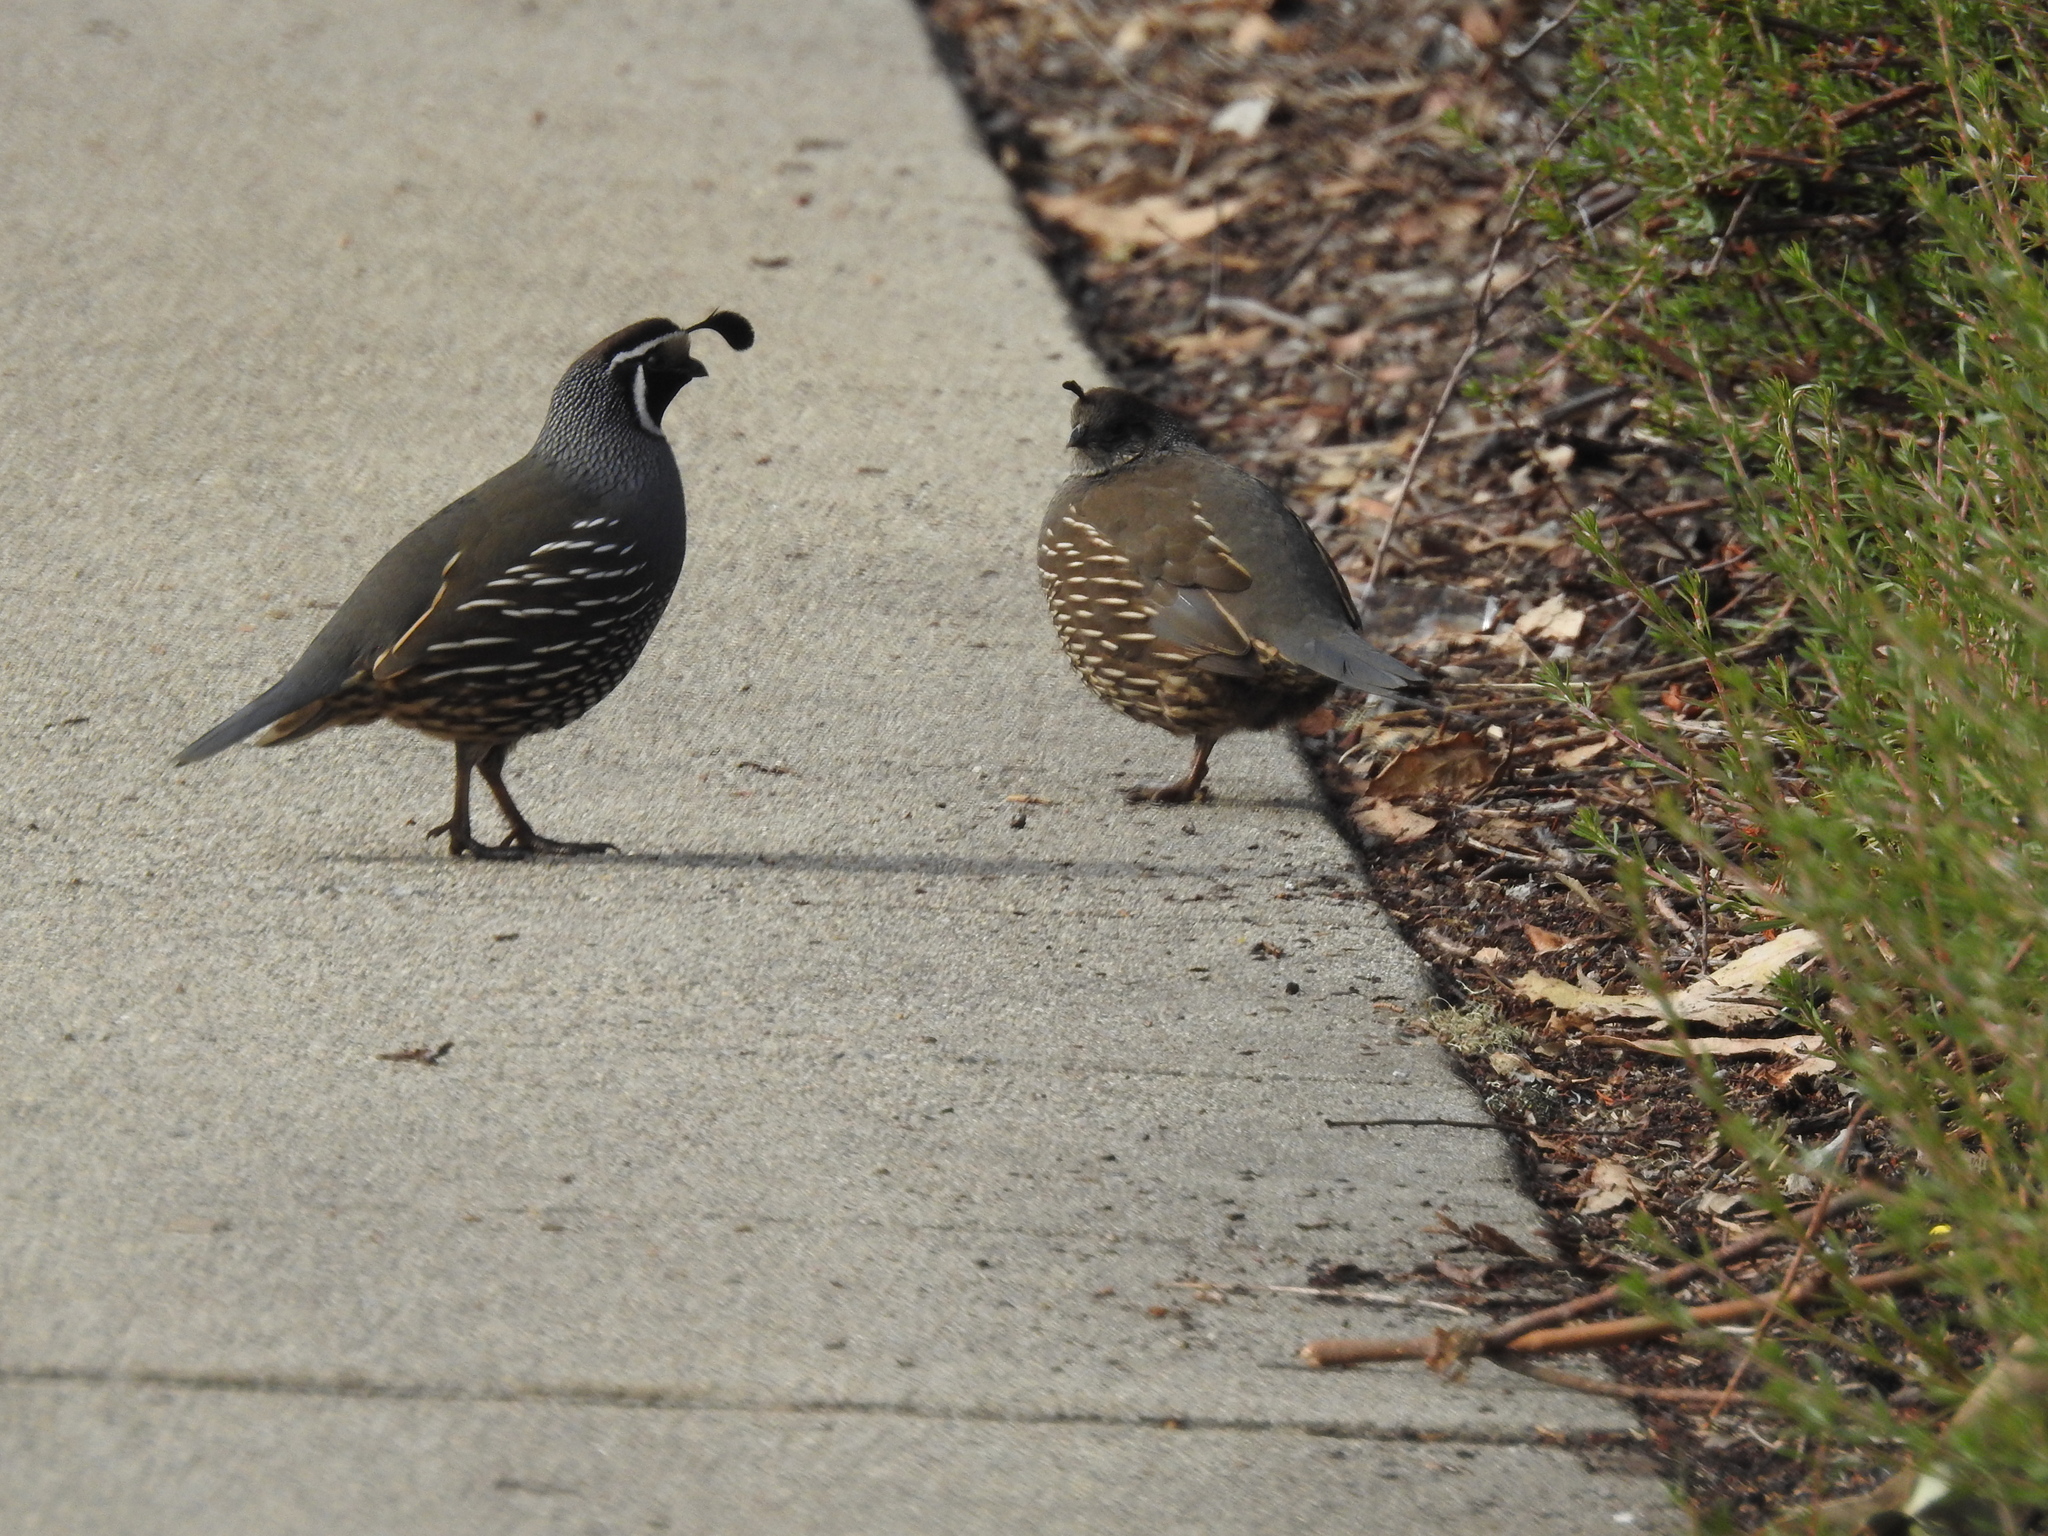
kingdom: Animalia
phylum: Chordata
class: Aves
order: Galliformes
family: Odontophoridae
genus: Callipepla
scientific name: Callipepla californica
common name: California quail
